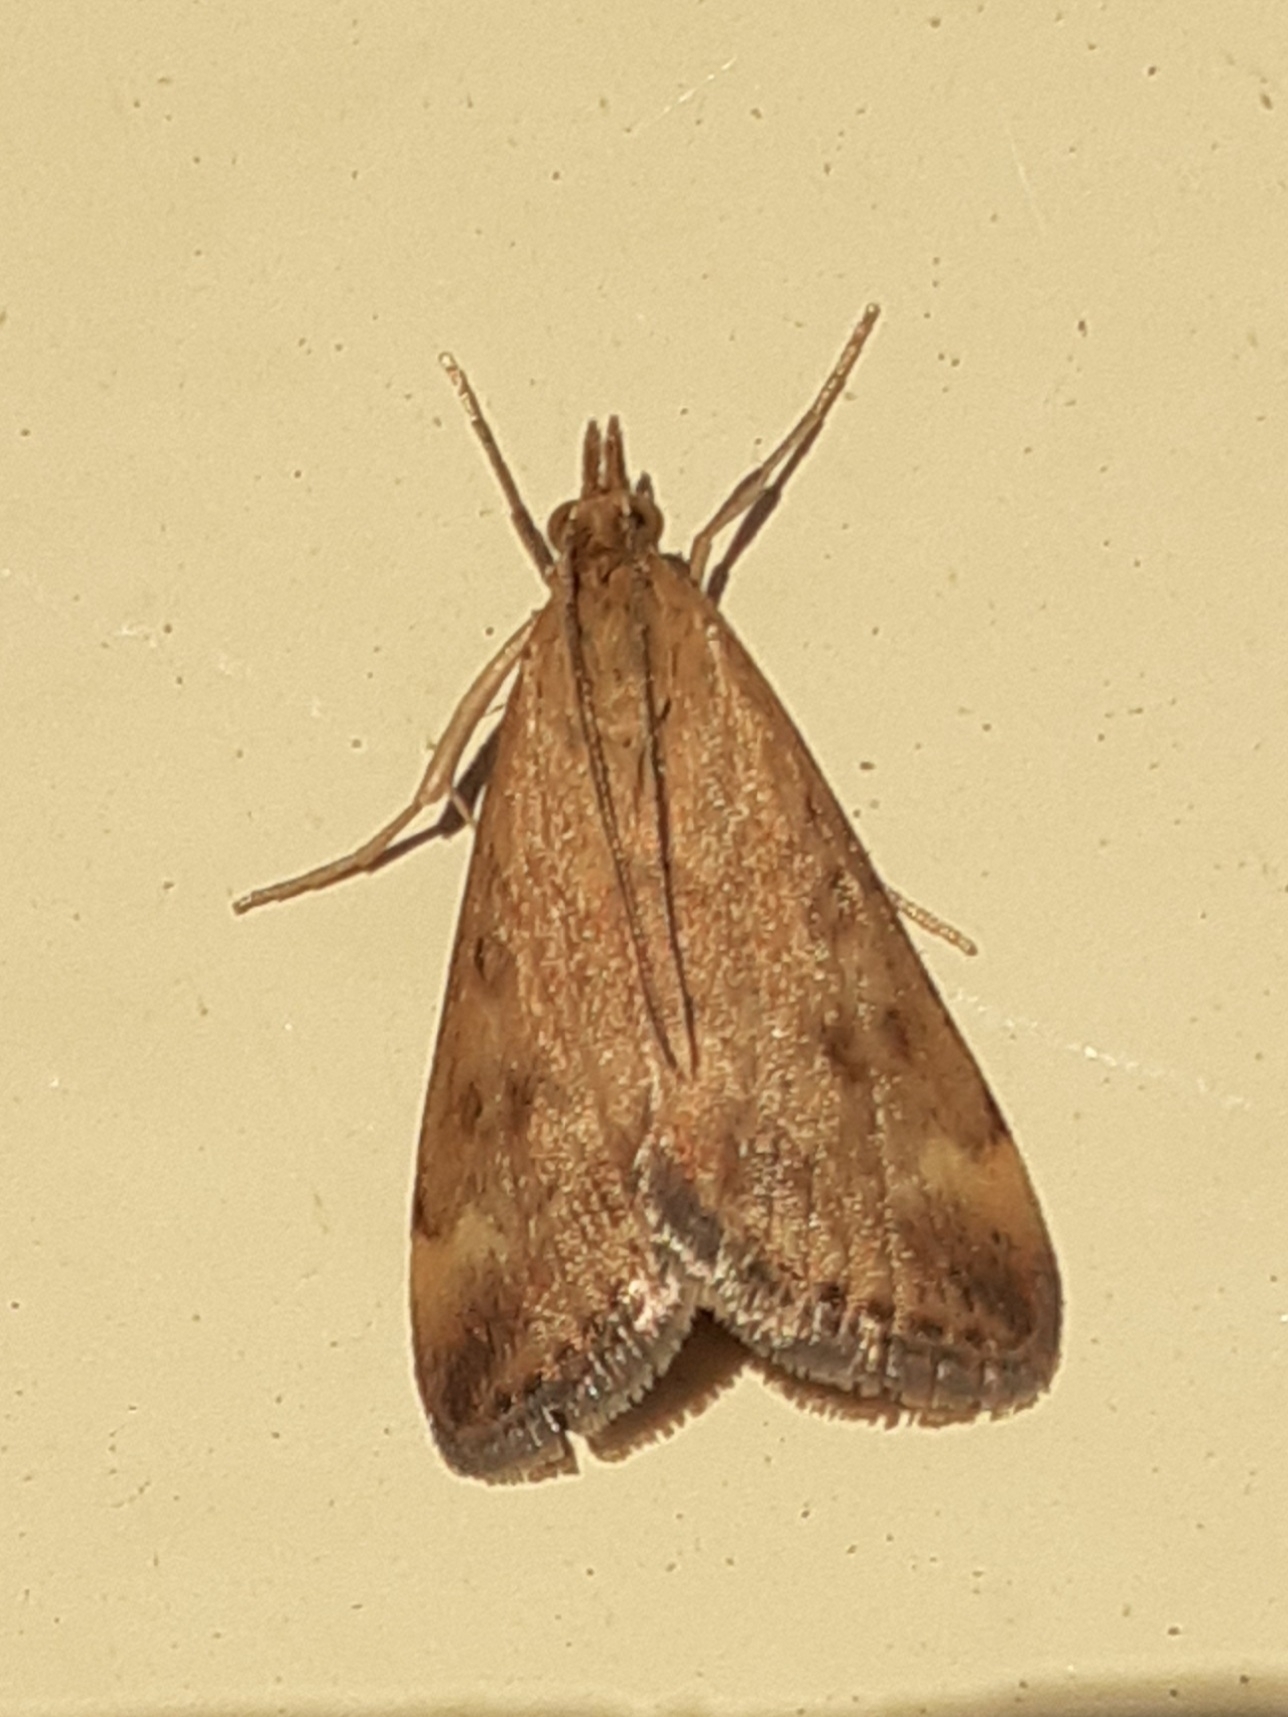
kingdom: Animalia
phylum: Arthropoda
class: Insecta
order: Lepidoptera
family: Crambidae
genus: Pyrausta
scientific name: Pyrausta despicata
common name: Straw-barred pearl
